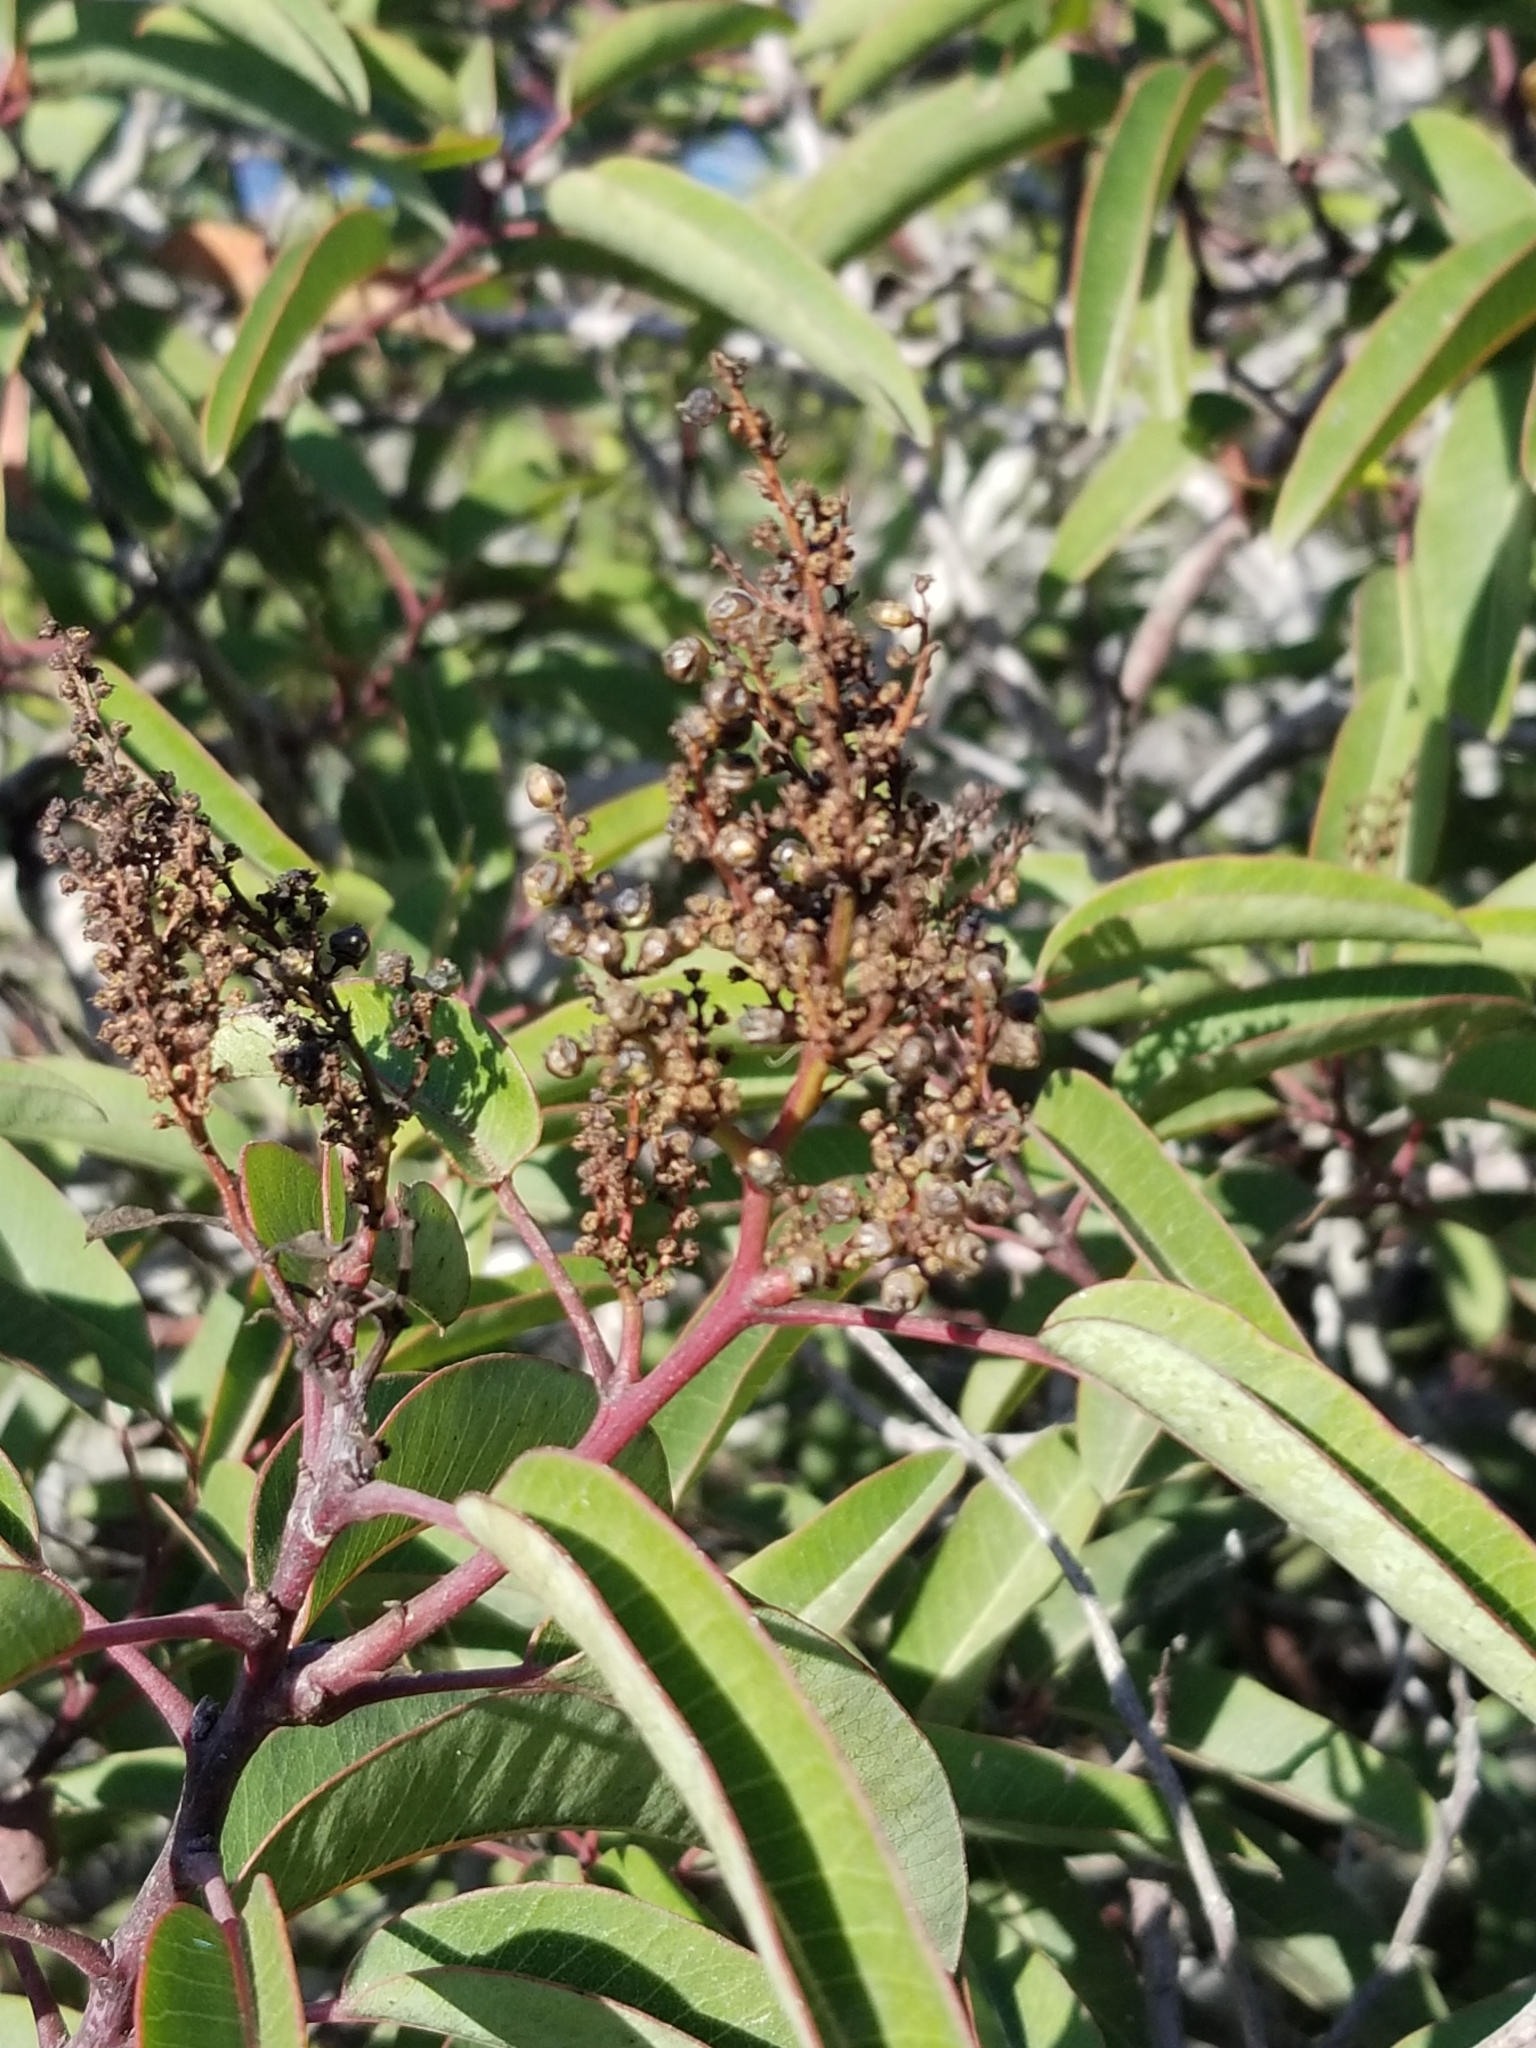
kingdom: Plantae
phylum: Tracheophyta
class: Magnoliopsida
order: Sapindales
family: Anacardiaceae
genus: Malosma
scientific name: Malosma laurina
